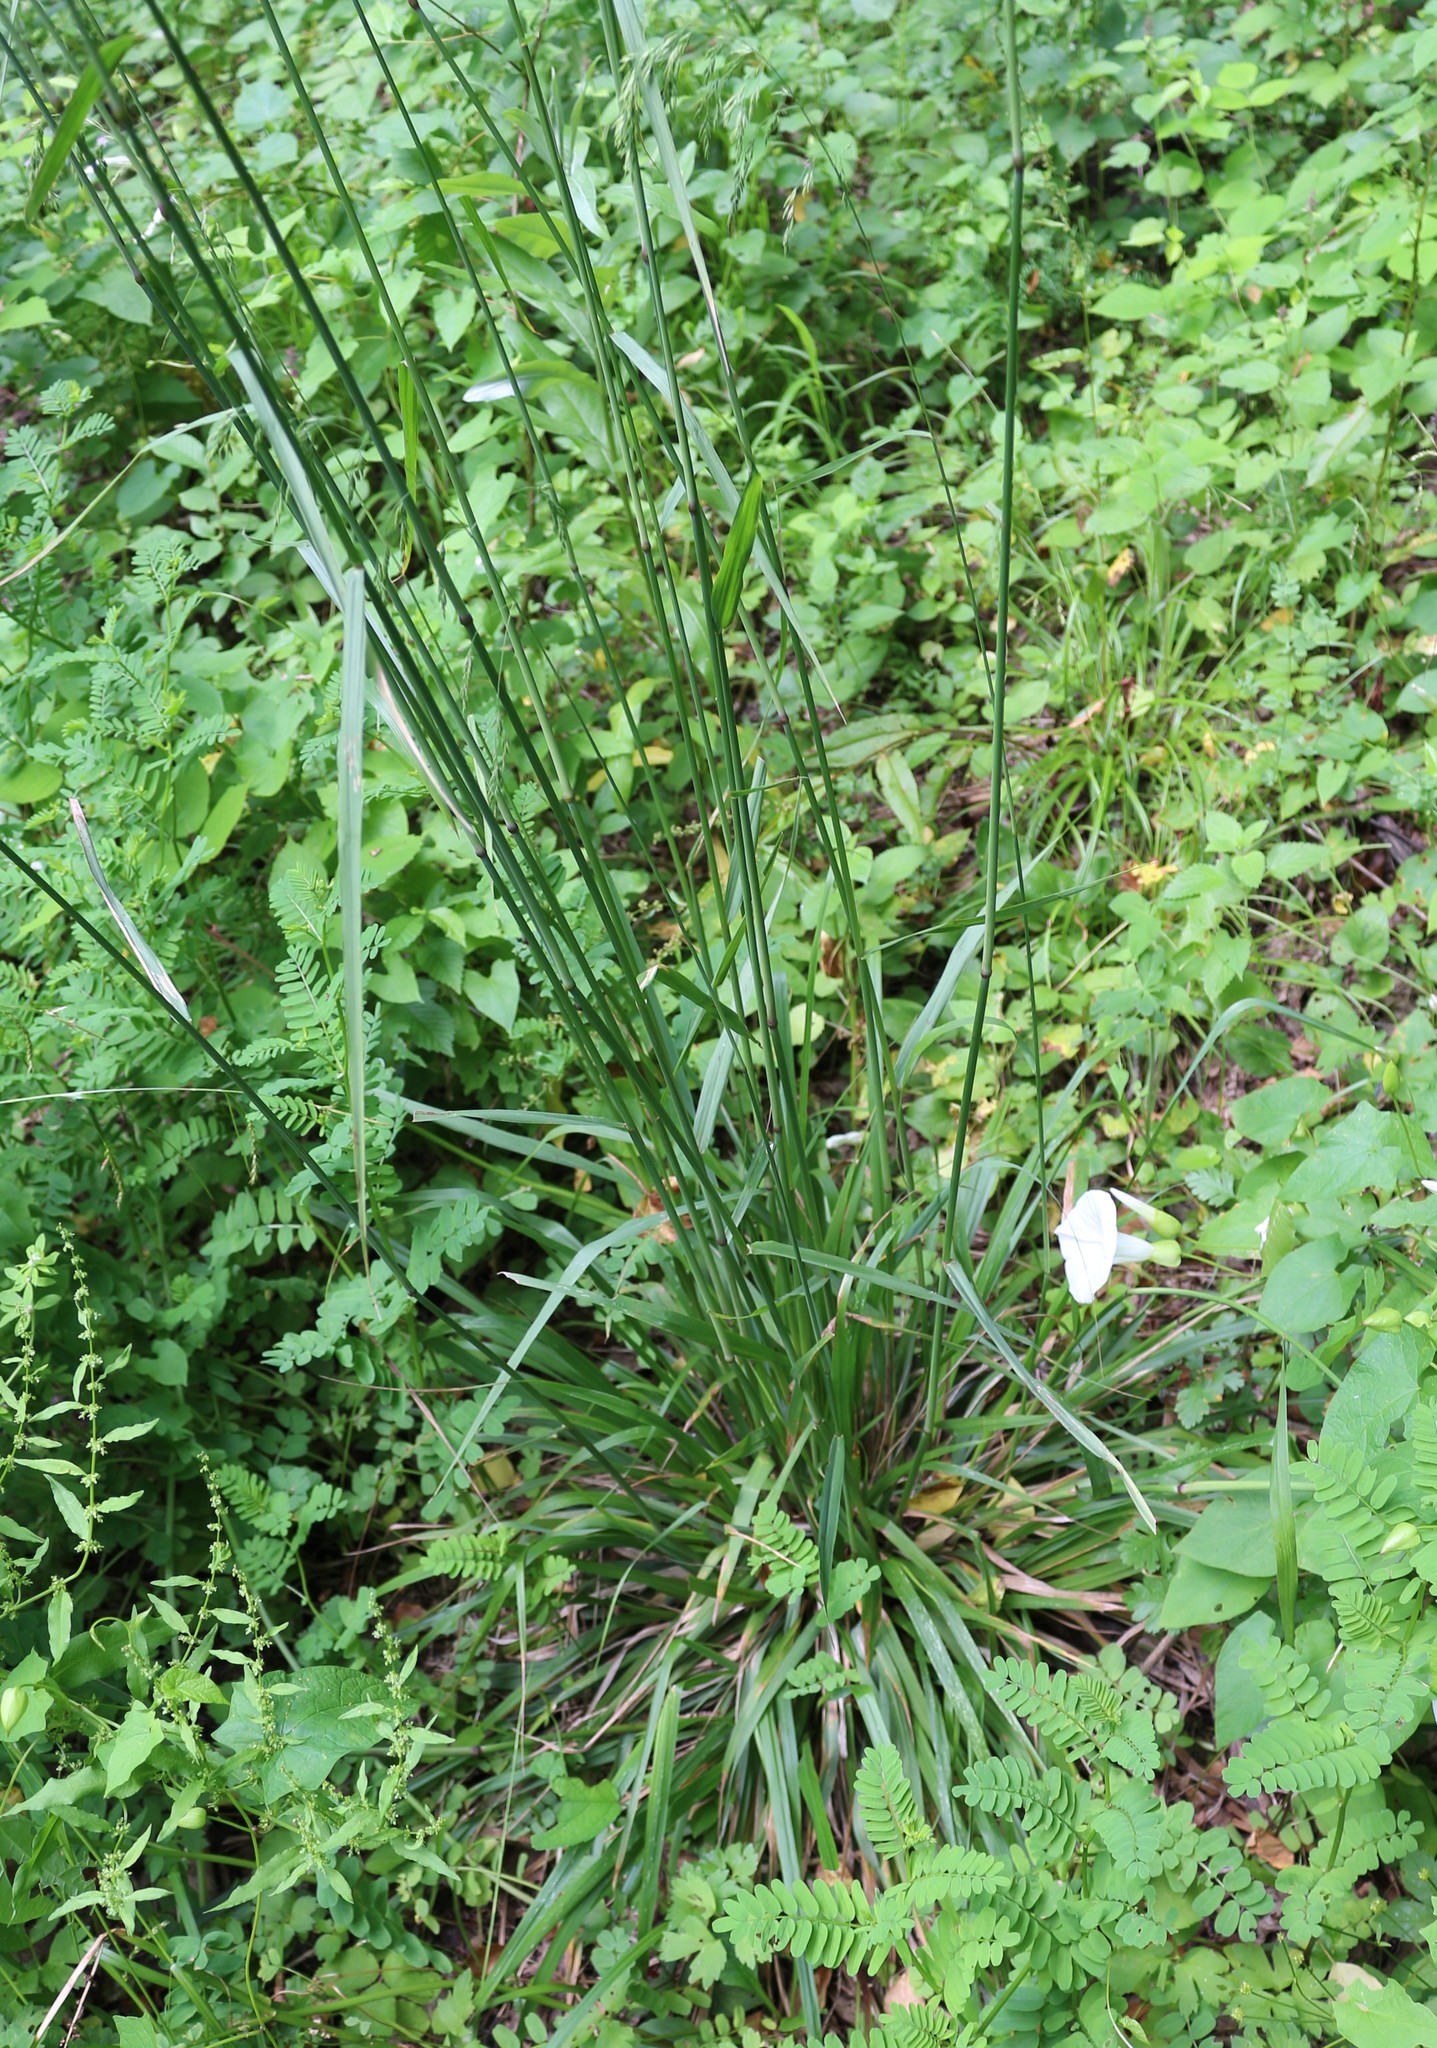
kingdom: Plantae
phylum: Tracheophyta
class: Liliopsida
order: Poales
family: Poaceae
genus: Festuca
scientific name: Festuca altissima
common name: Wood fescue
